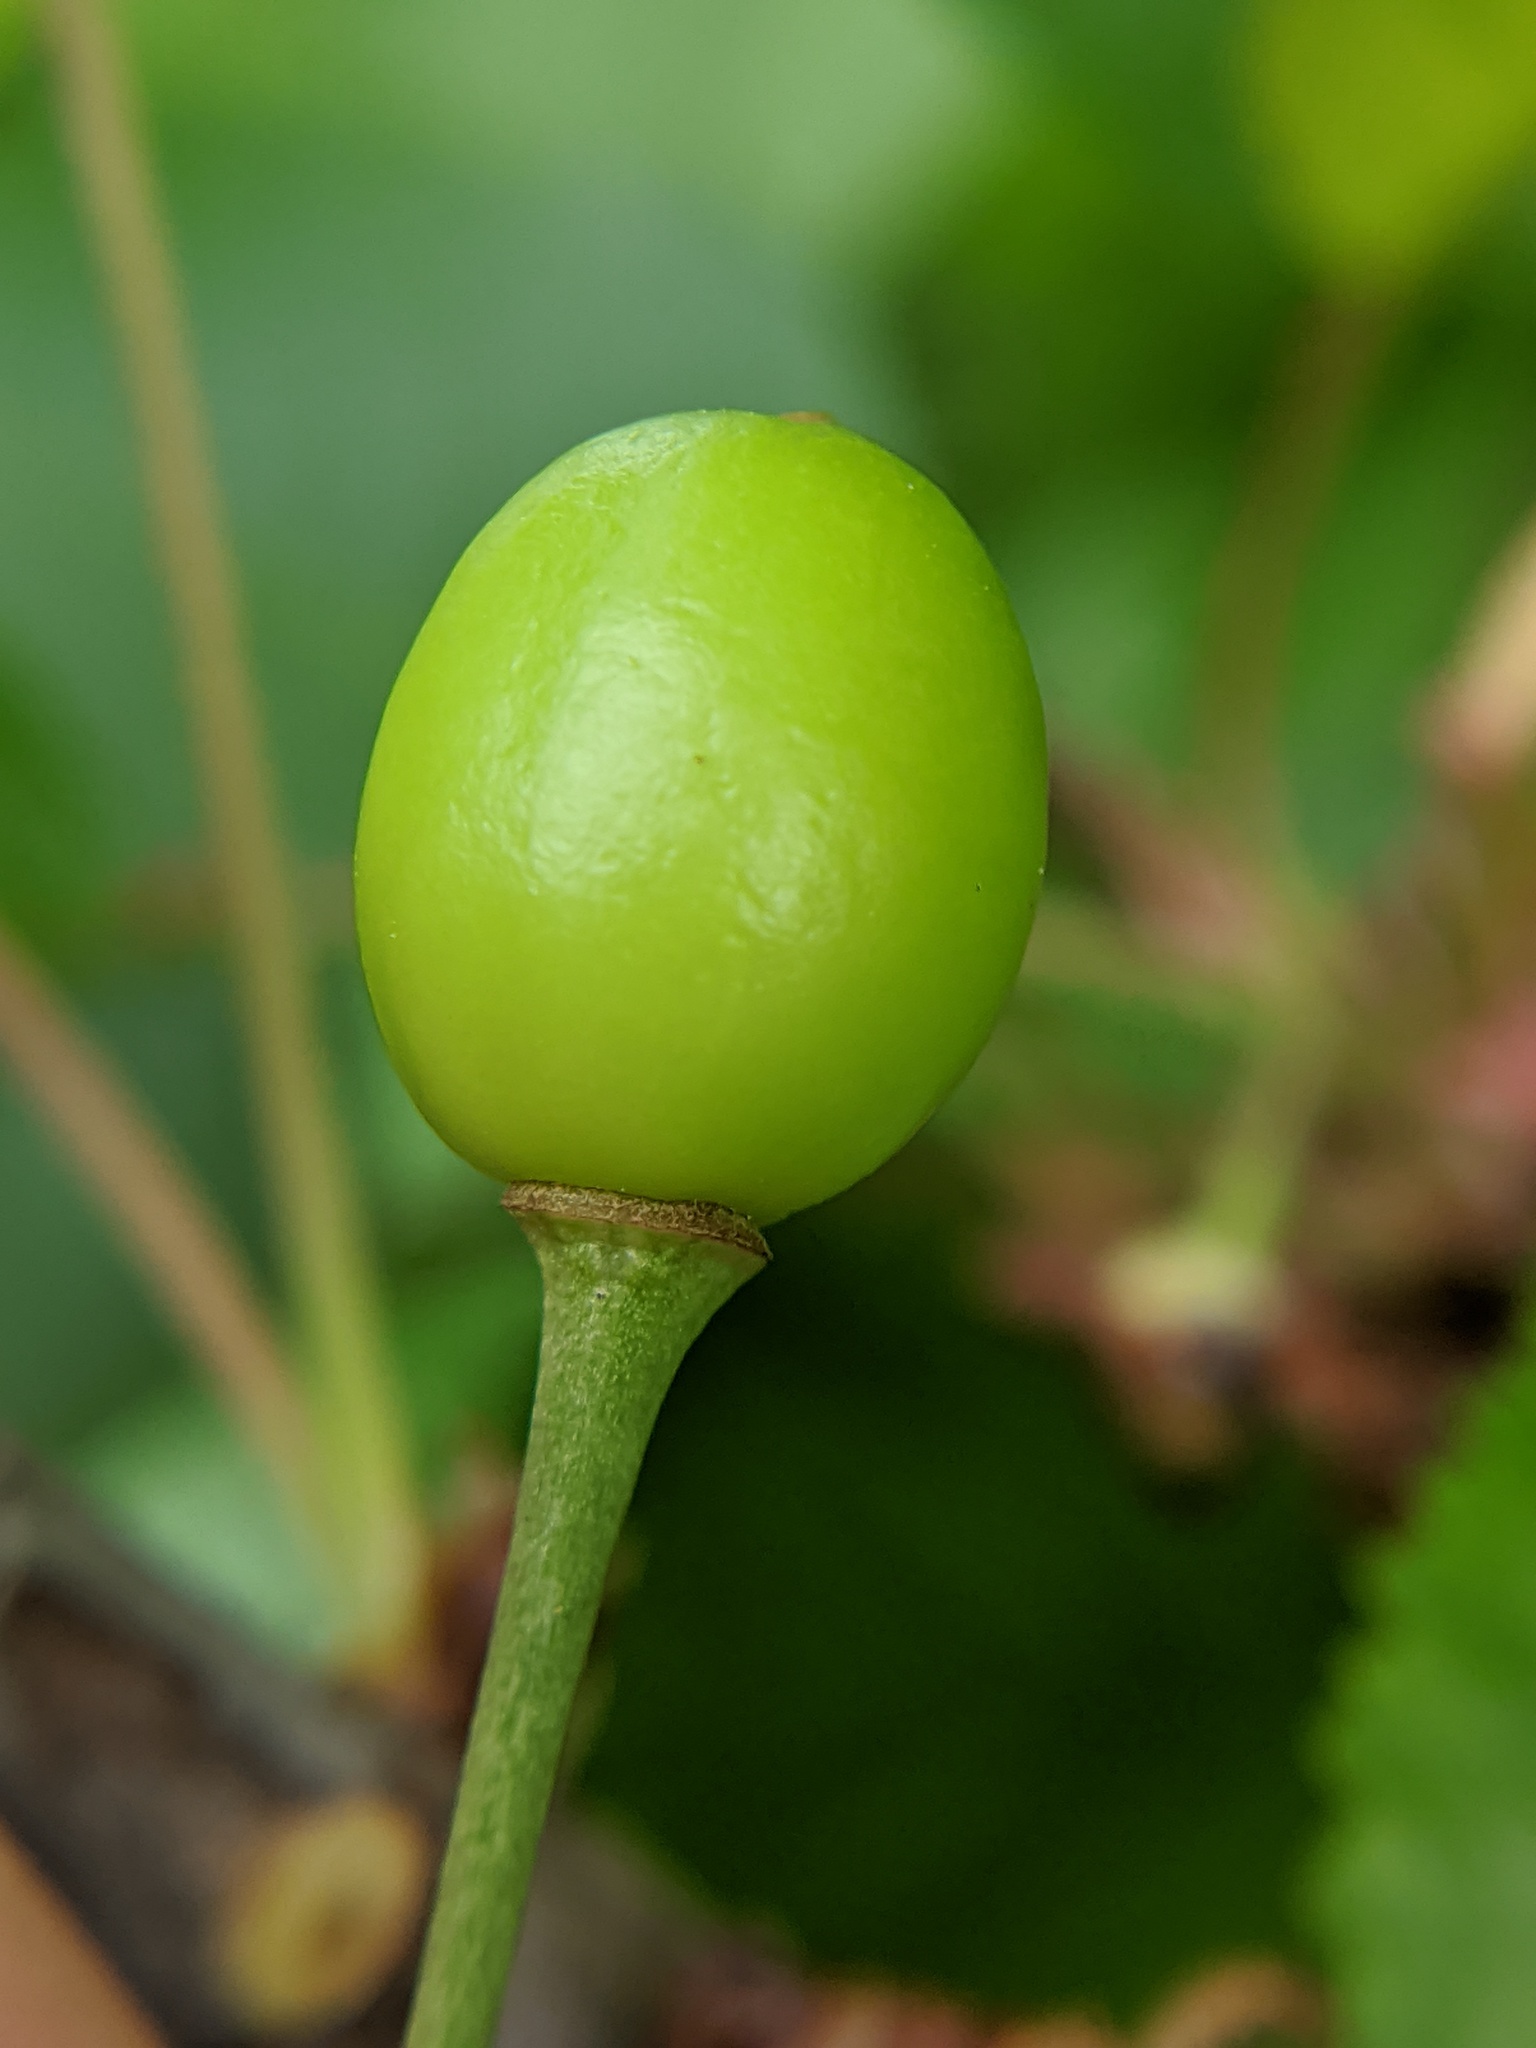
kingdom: Plantae
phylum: Tracheophyta
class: Magnoliopsida
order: Rosales
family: Rosaceae
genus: Prunus
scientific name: Prunus avium
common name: Sweet cherry
